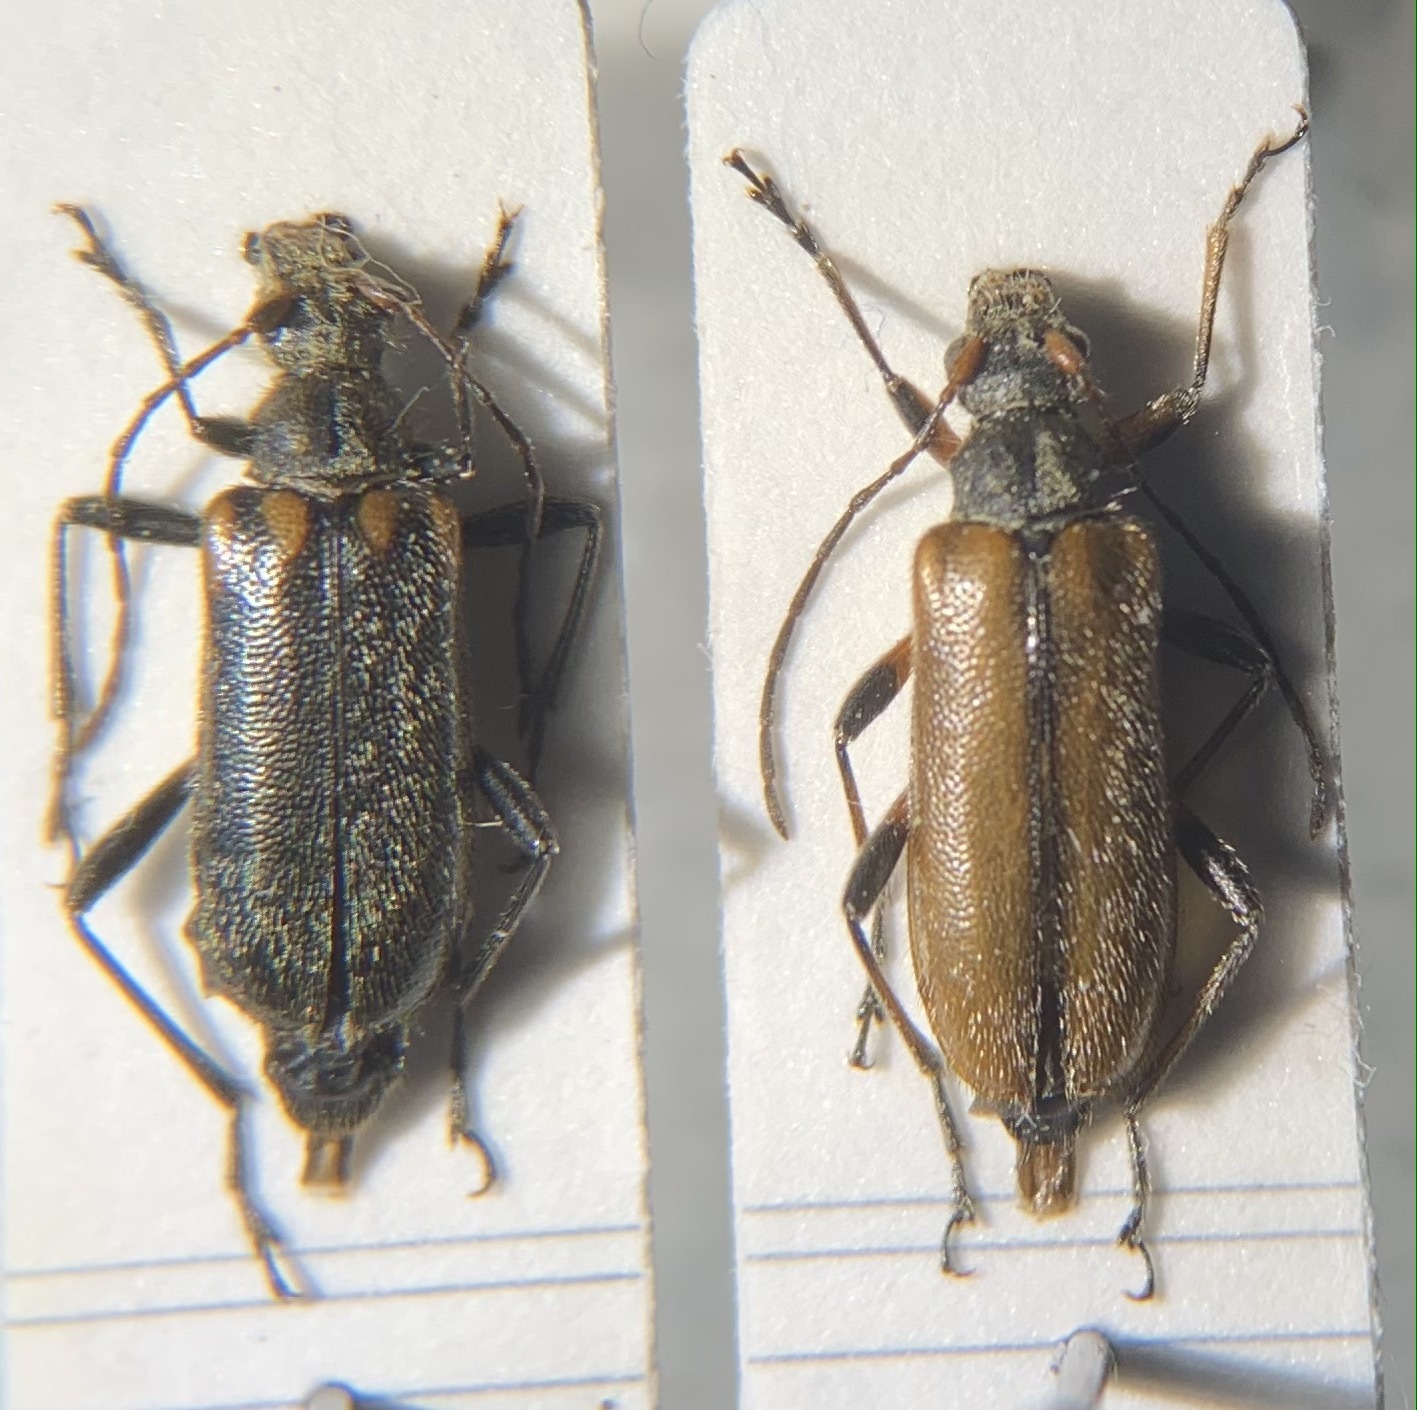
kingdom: Animalia
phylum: Arthropoda
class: Insecta
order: Coleoptera
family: Cerambycidae
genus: Cortodera
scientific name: Cortodera humeralis
